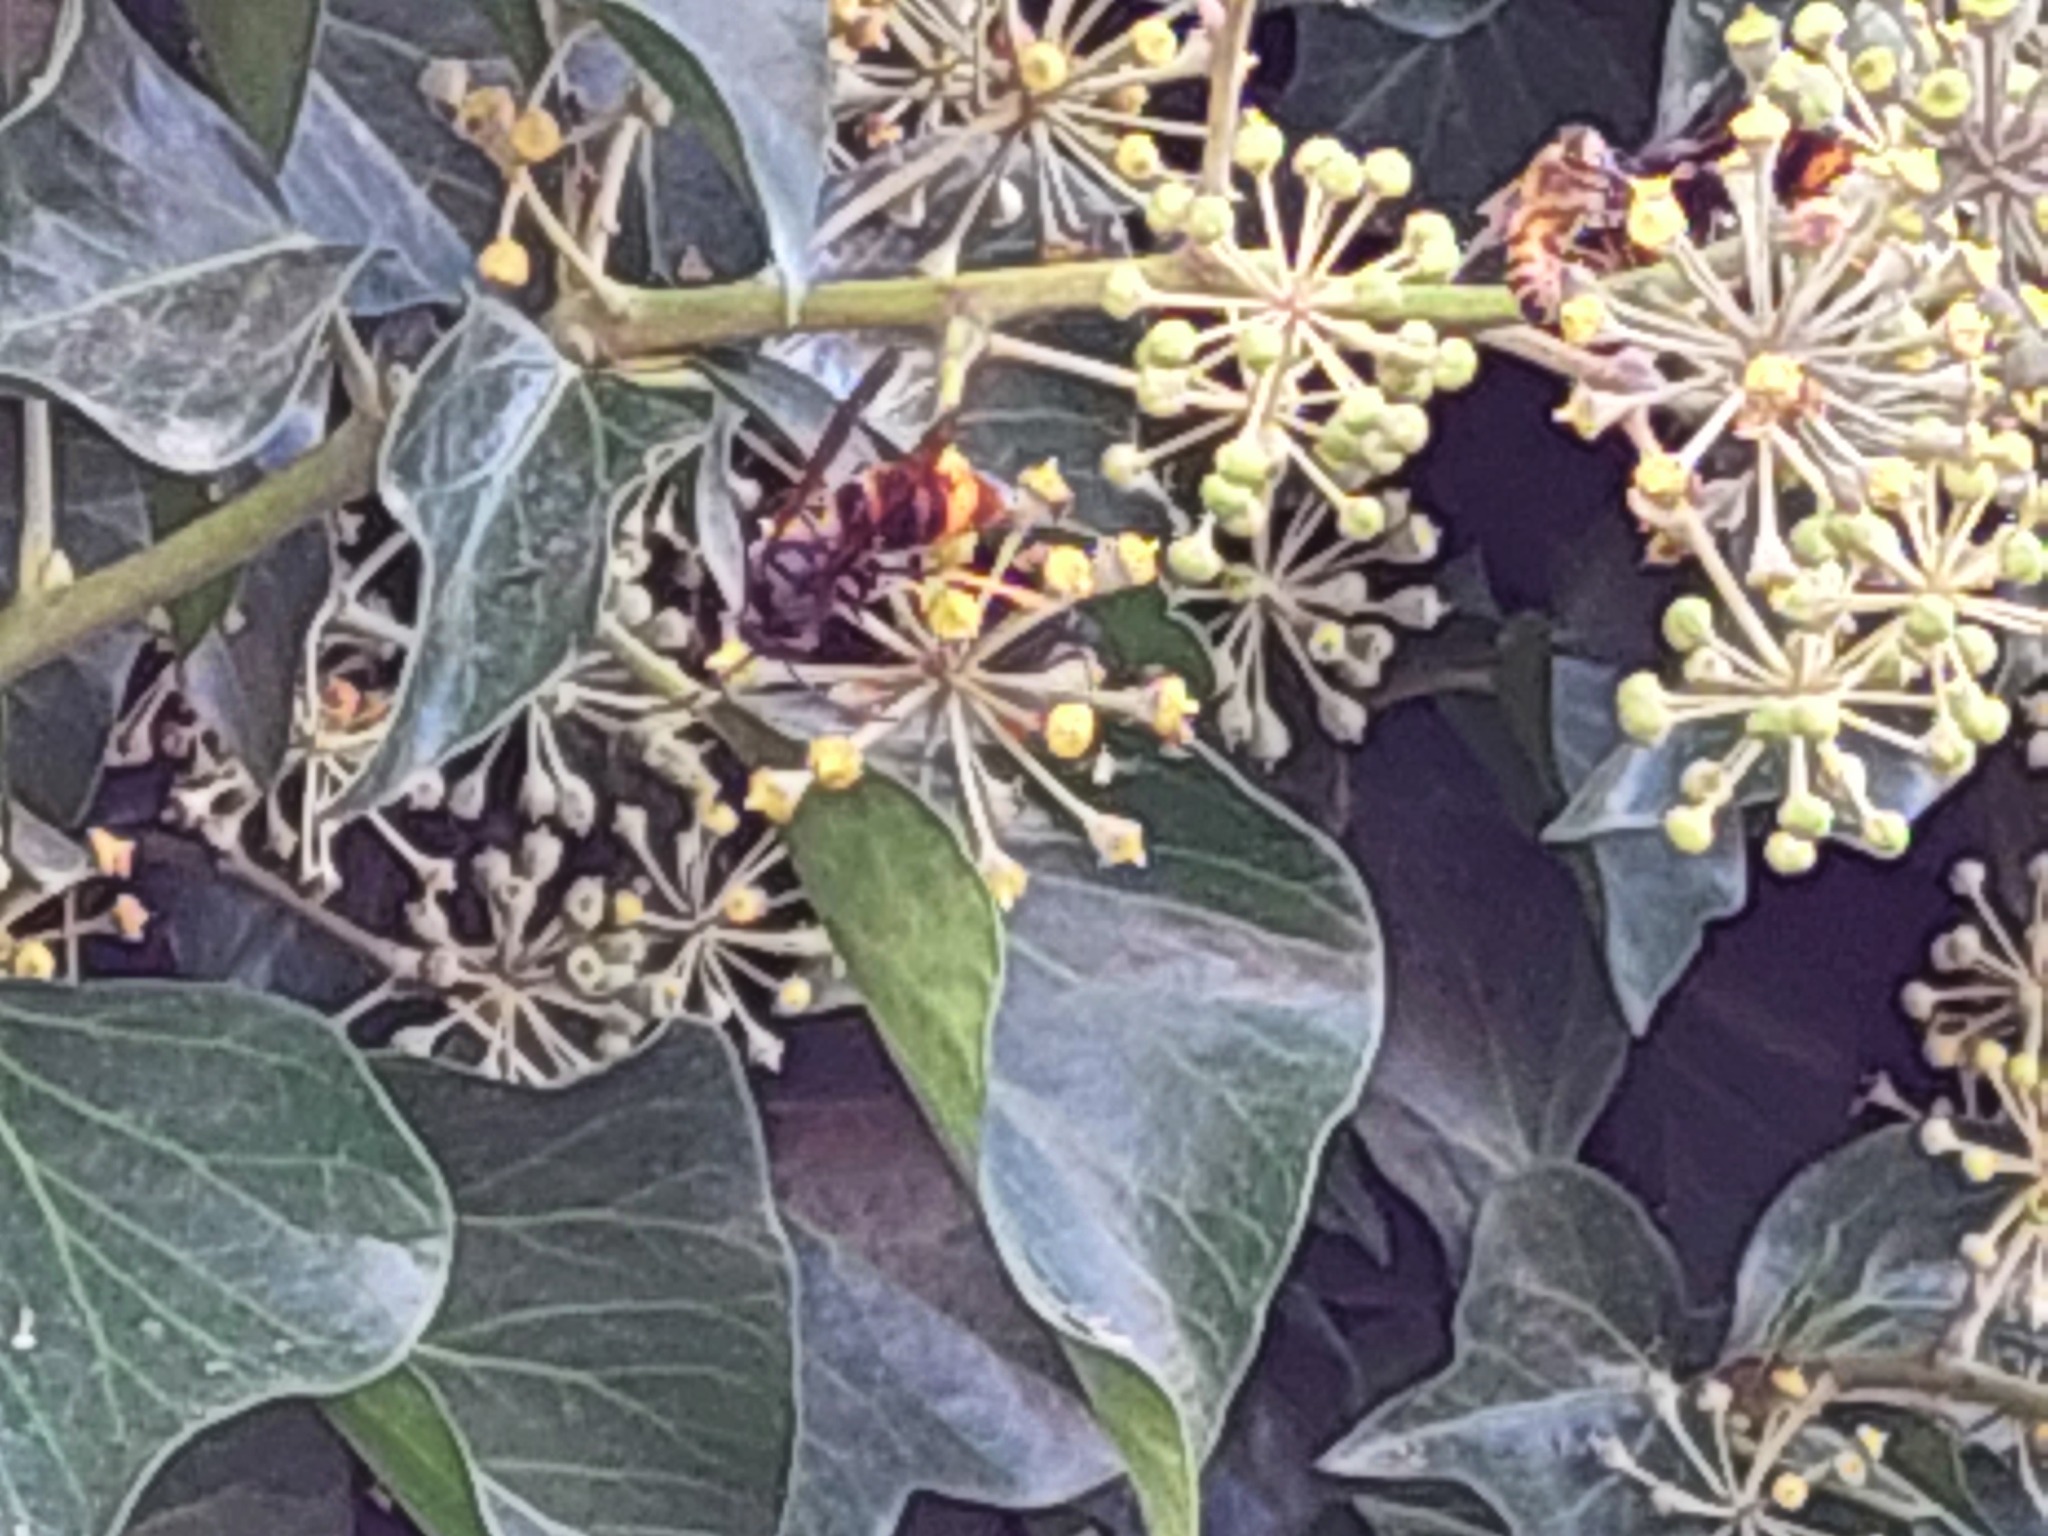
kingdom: Animalia
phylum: Arthropoda
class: Insecta
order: Hymenoptera
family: Vespidae
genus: Vespa
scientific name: Vespa velutina
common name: Asian hornet
